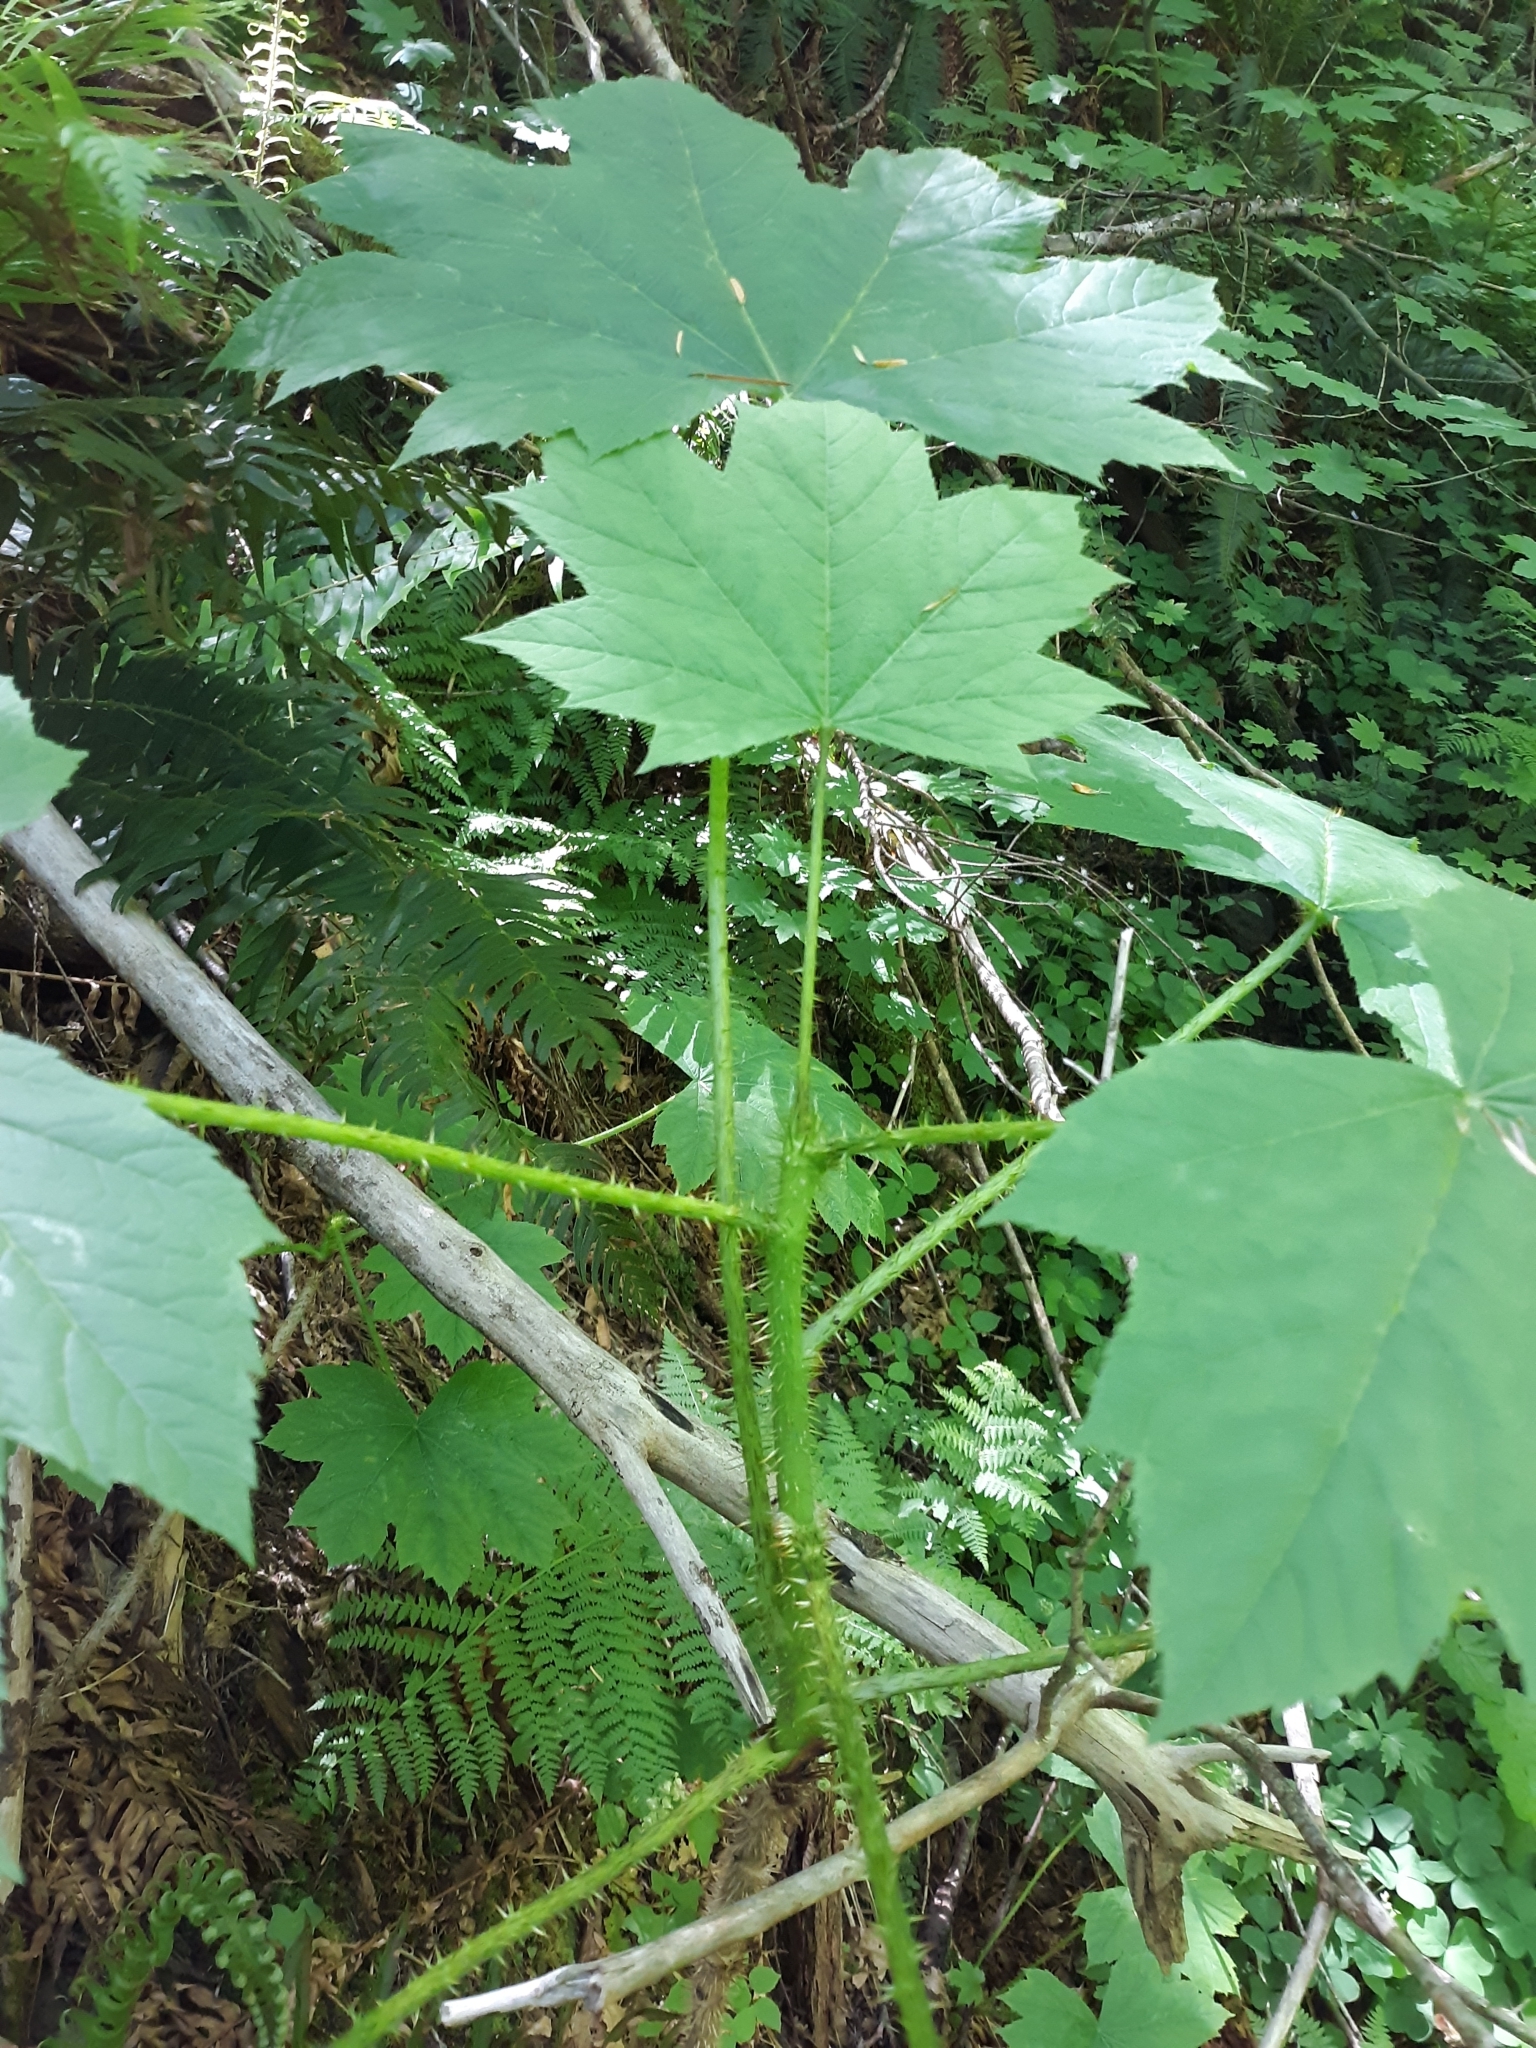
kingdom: Plantae
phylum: Tracheophyta
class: Magnoliopsida
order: Apiales
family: Araliaceae
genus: Oplopanax
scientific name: Oplopanax horridus
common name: Devil's walking-stick
